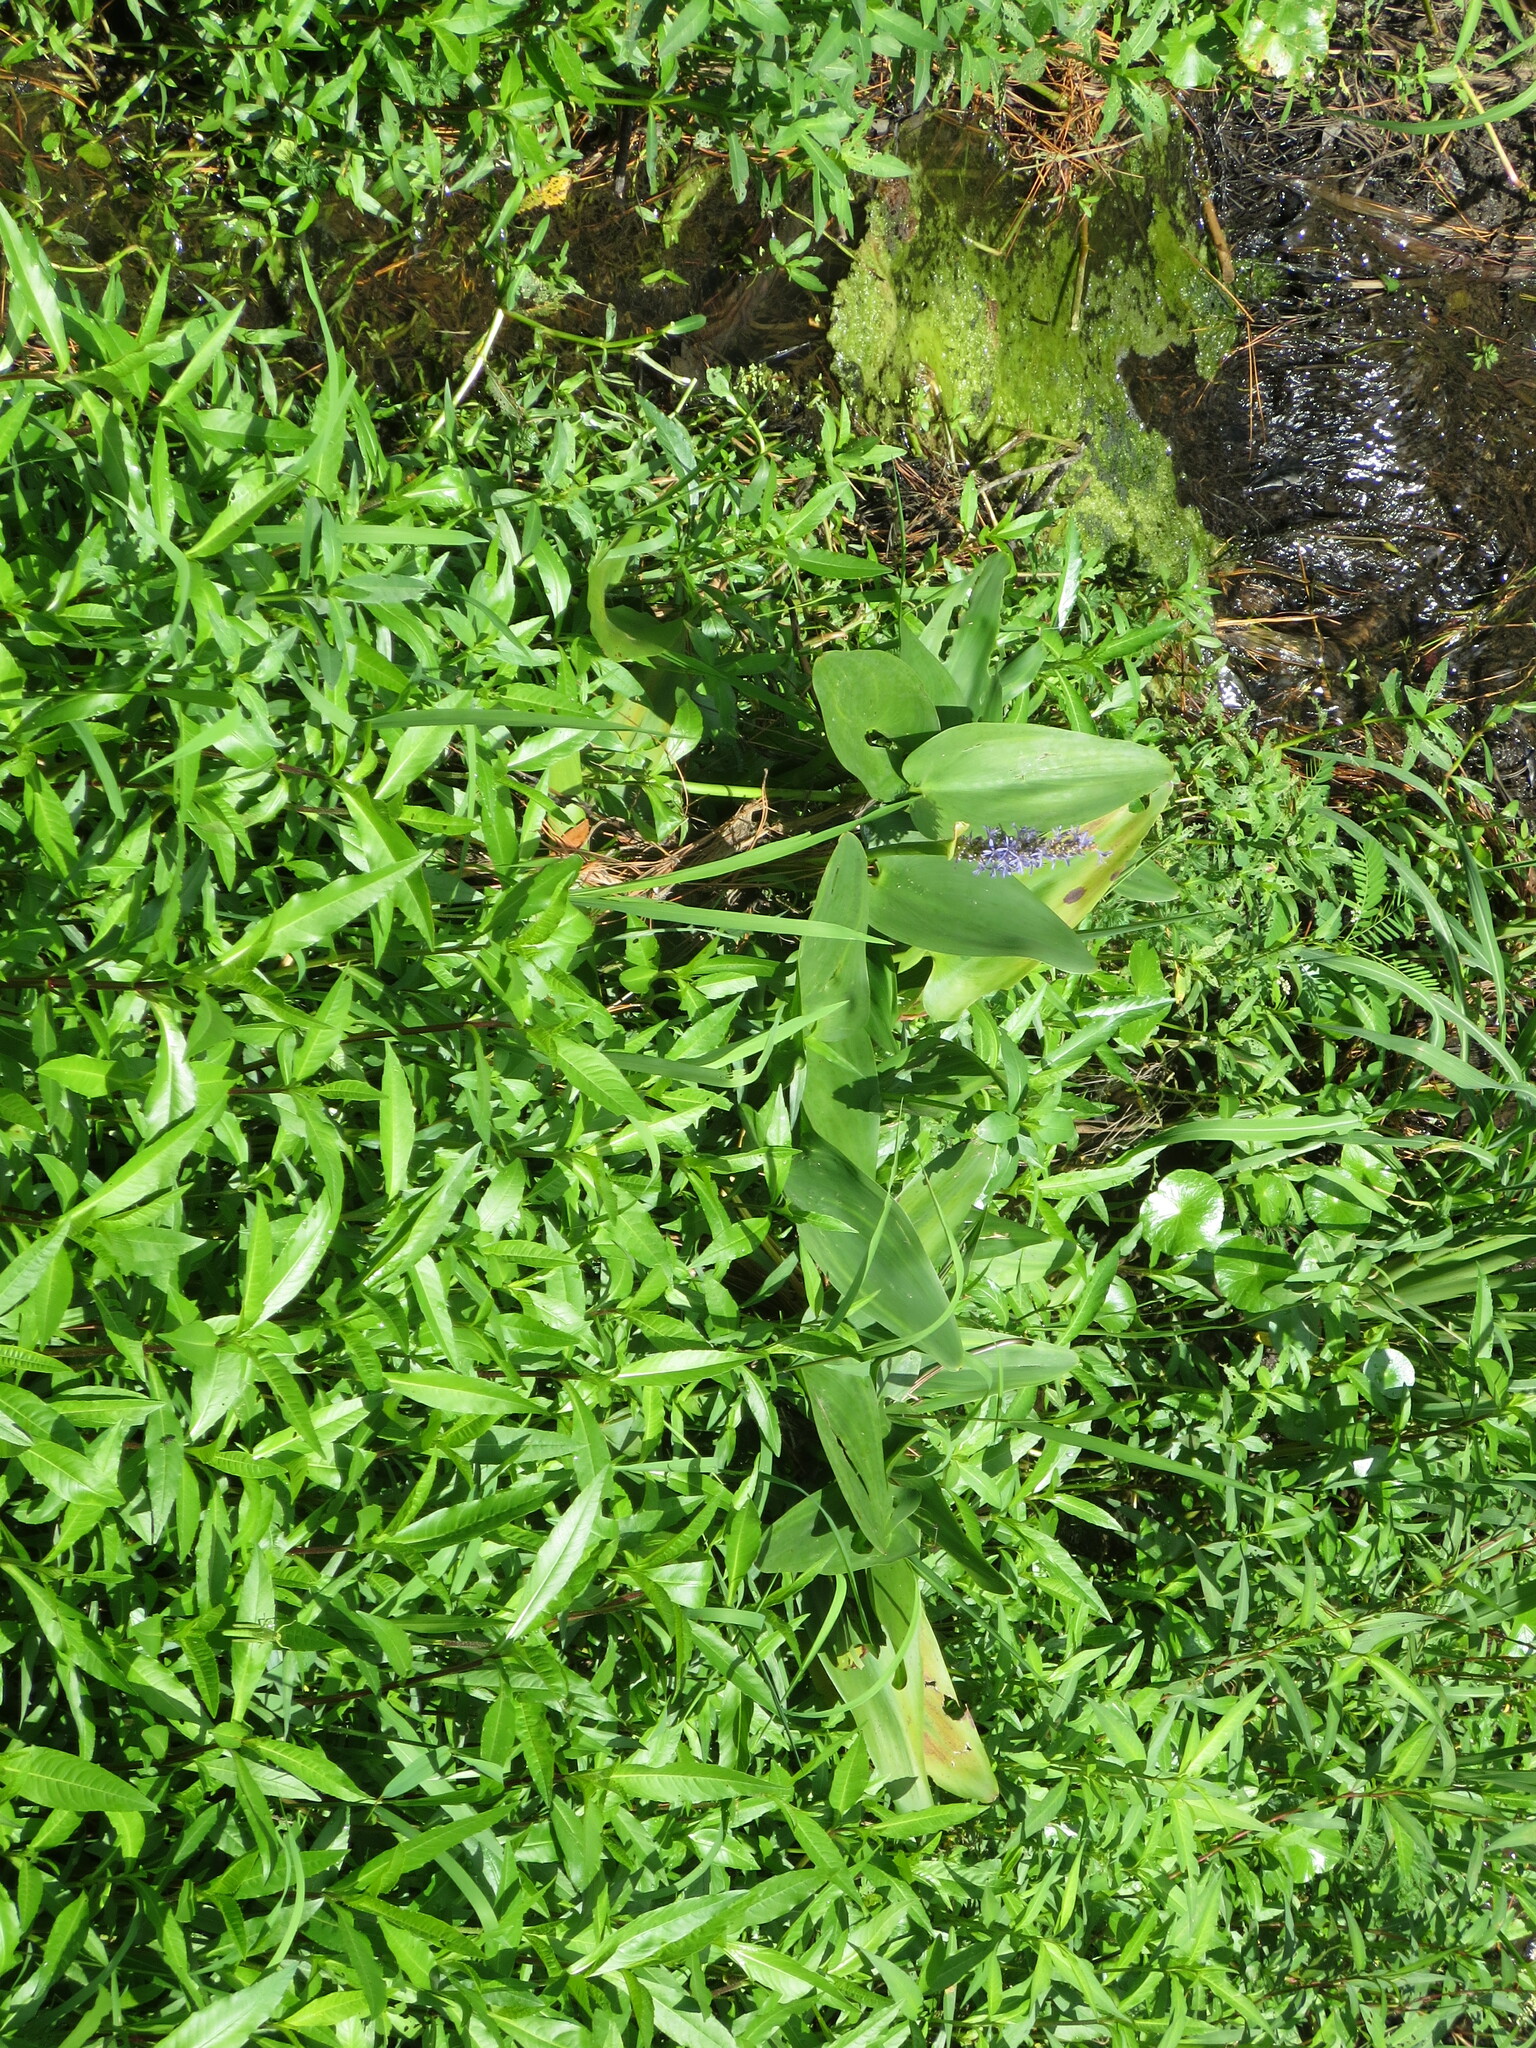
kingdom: Plantae
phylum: Tracheophyta
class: Liliopsida
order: Commelinales
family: Pontederiaceae
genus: Pontederia
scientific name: Pontederia cordata
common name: Pickerelweed
